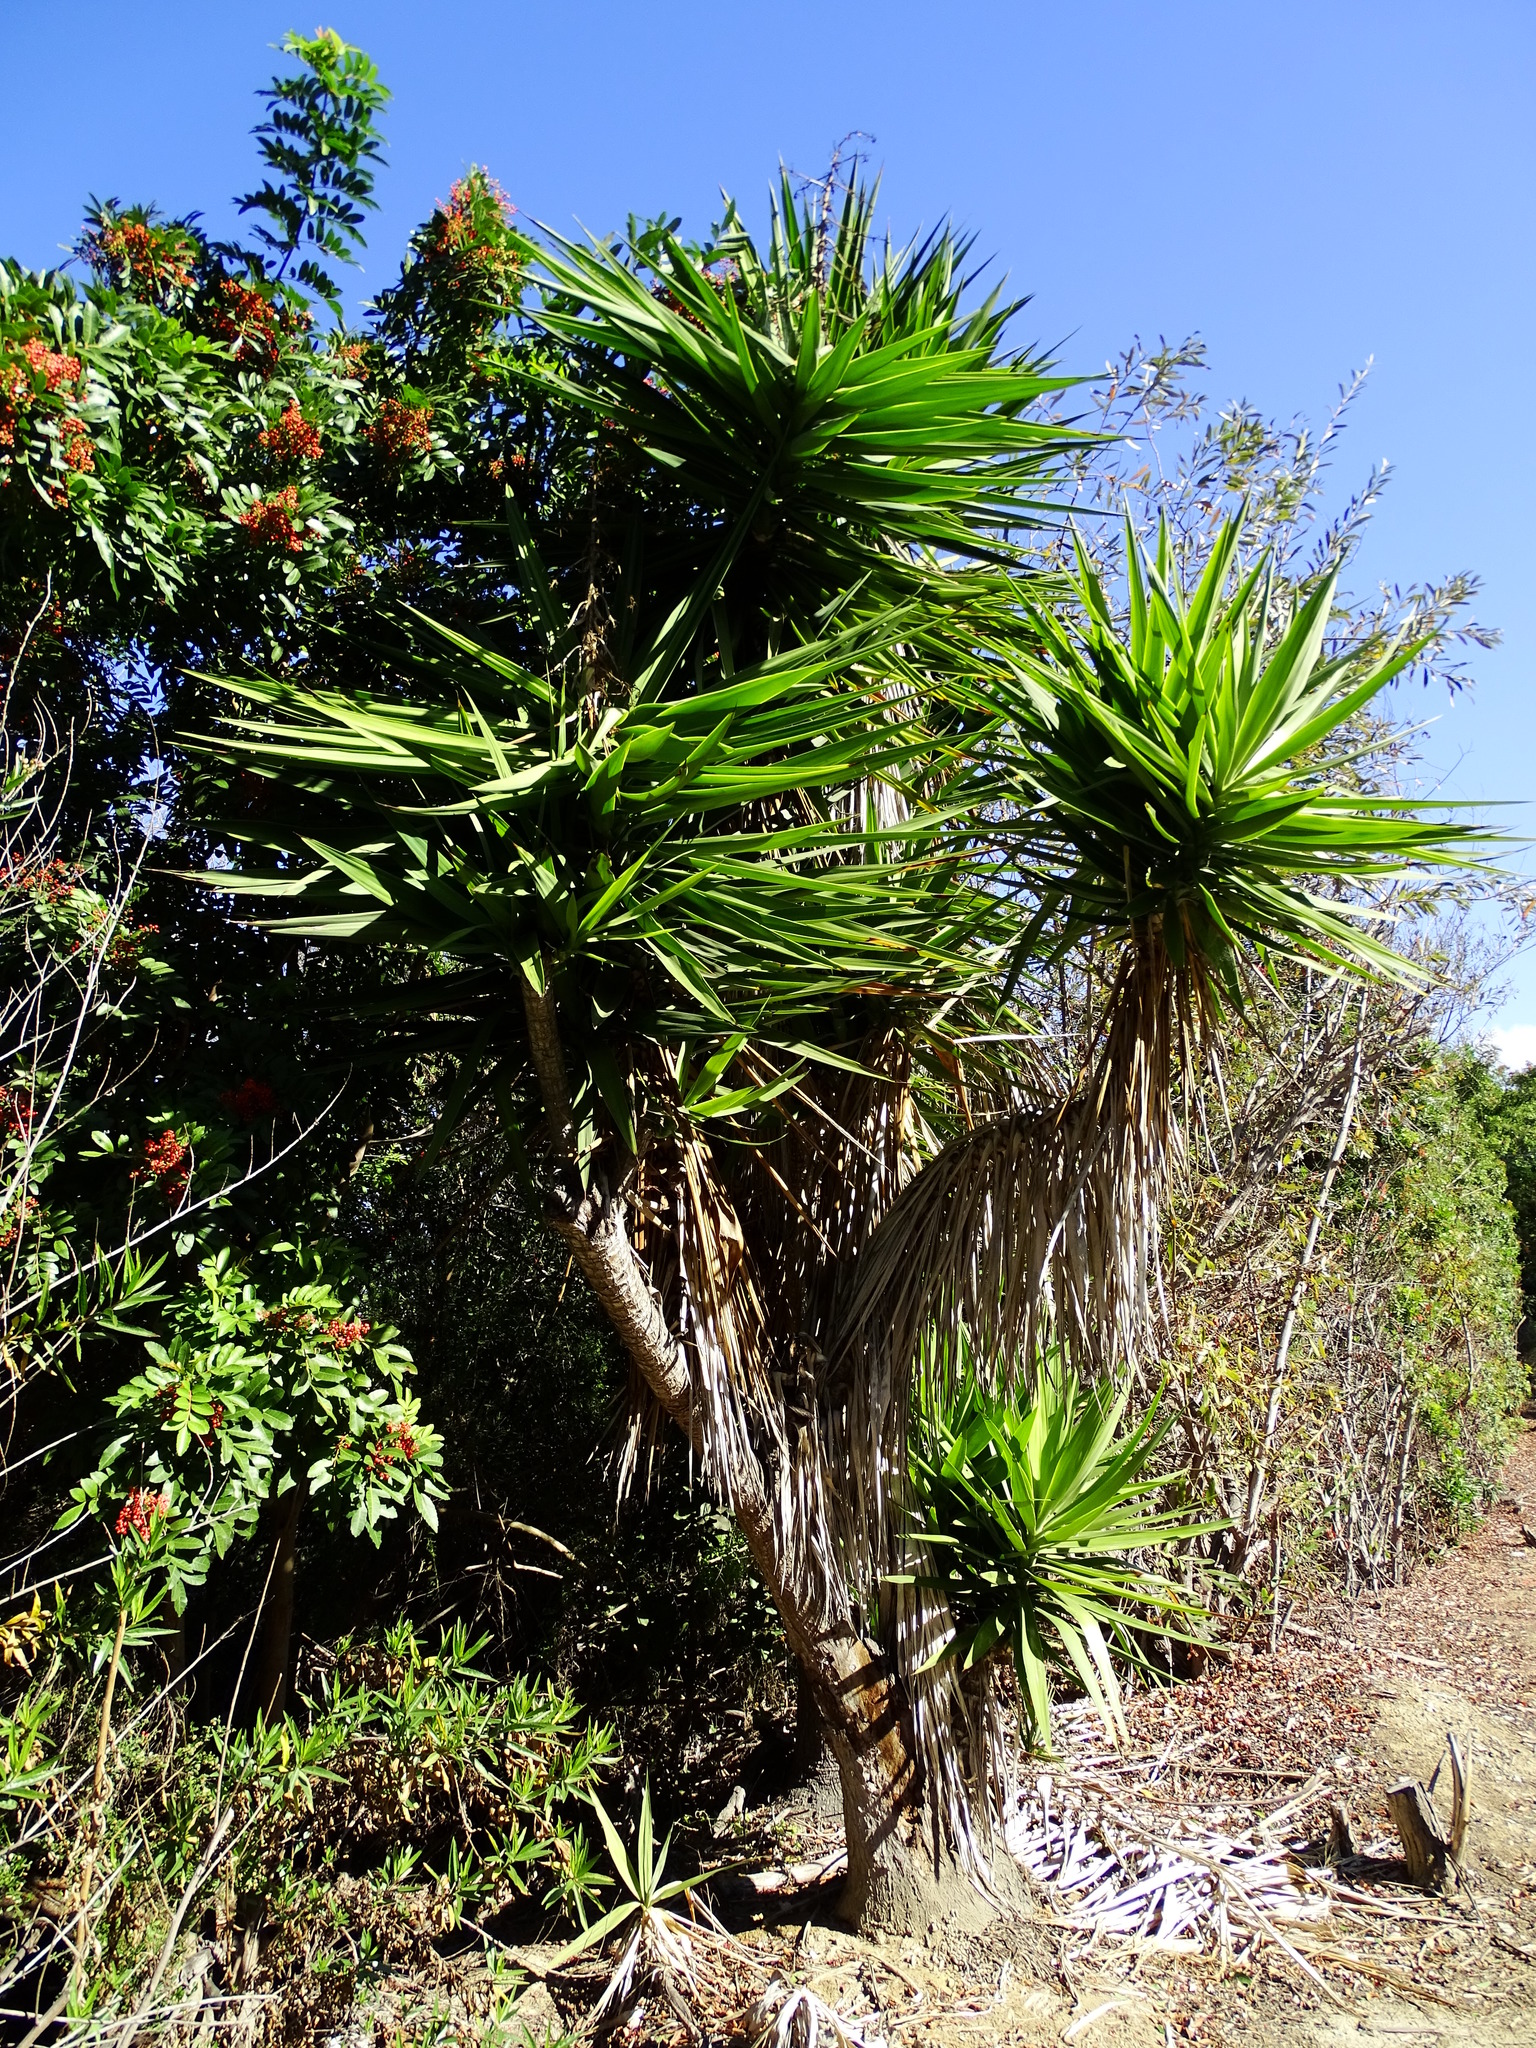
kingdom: Plantae
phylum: Tracheophyta
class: Liliopsida
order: Asparagales
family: Asparagaceae
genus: Yucca
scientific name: Yucca gigantea
